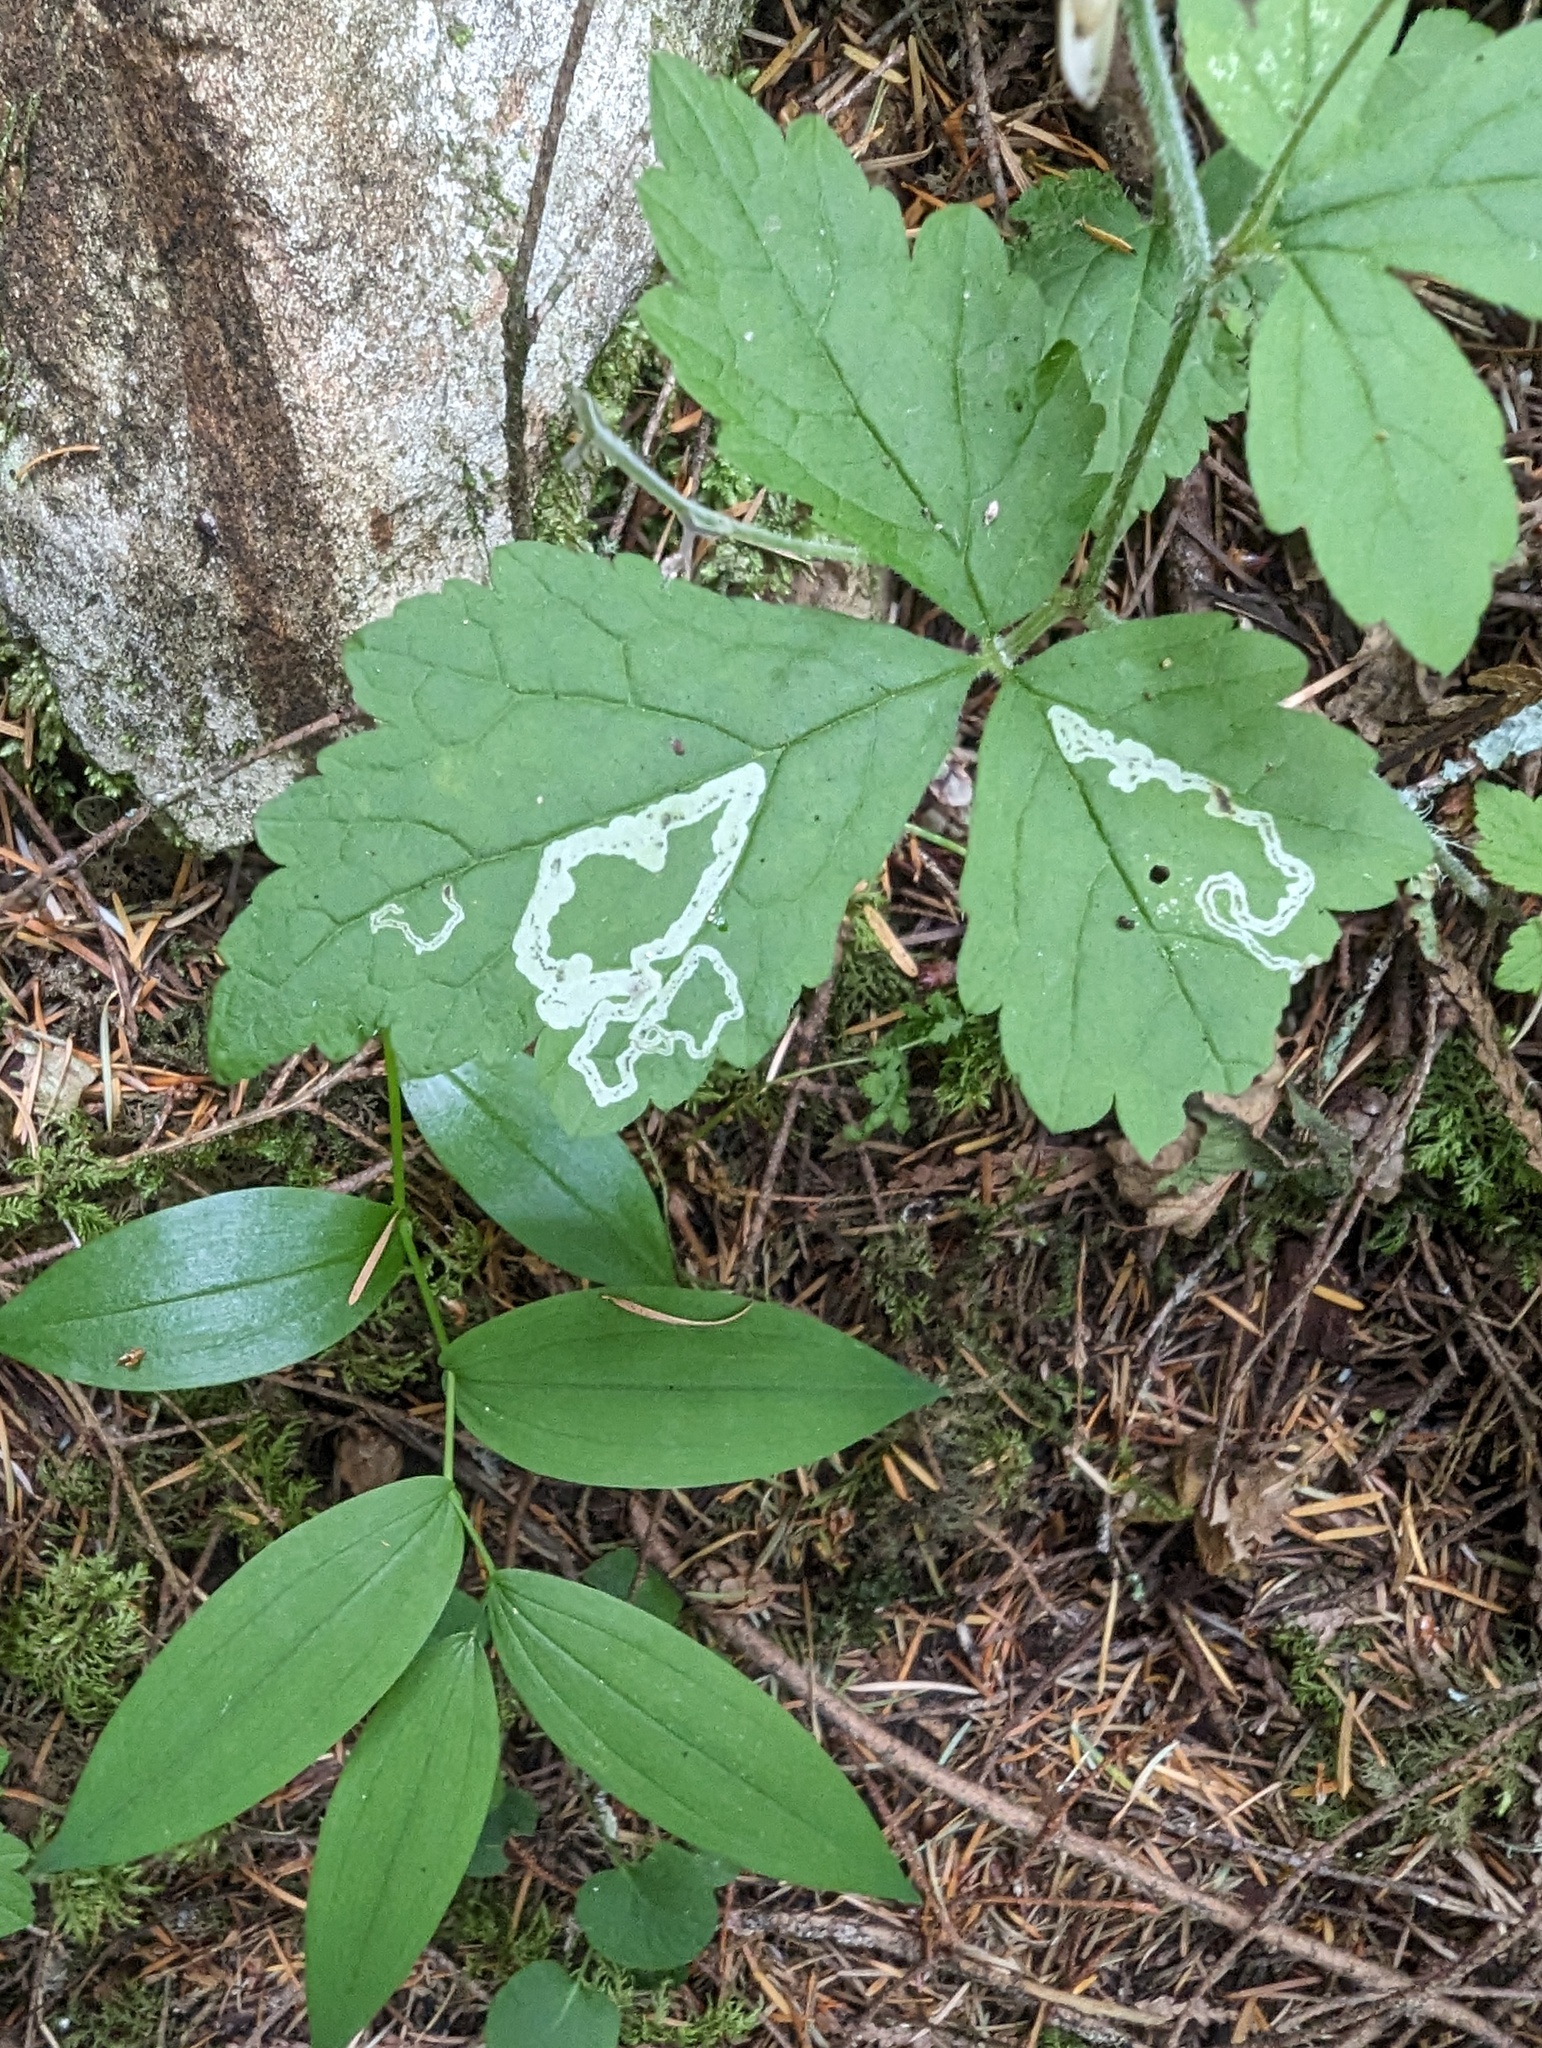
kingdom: Animalia
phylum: Arthropoda
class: Insecta
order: Diptera
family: Agromyzidae
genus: Phytomyza
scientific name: Phytomyza tiarellae
